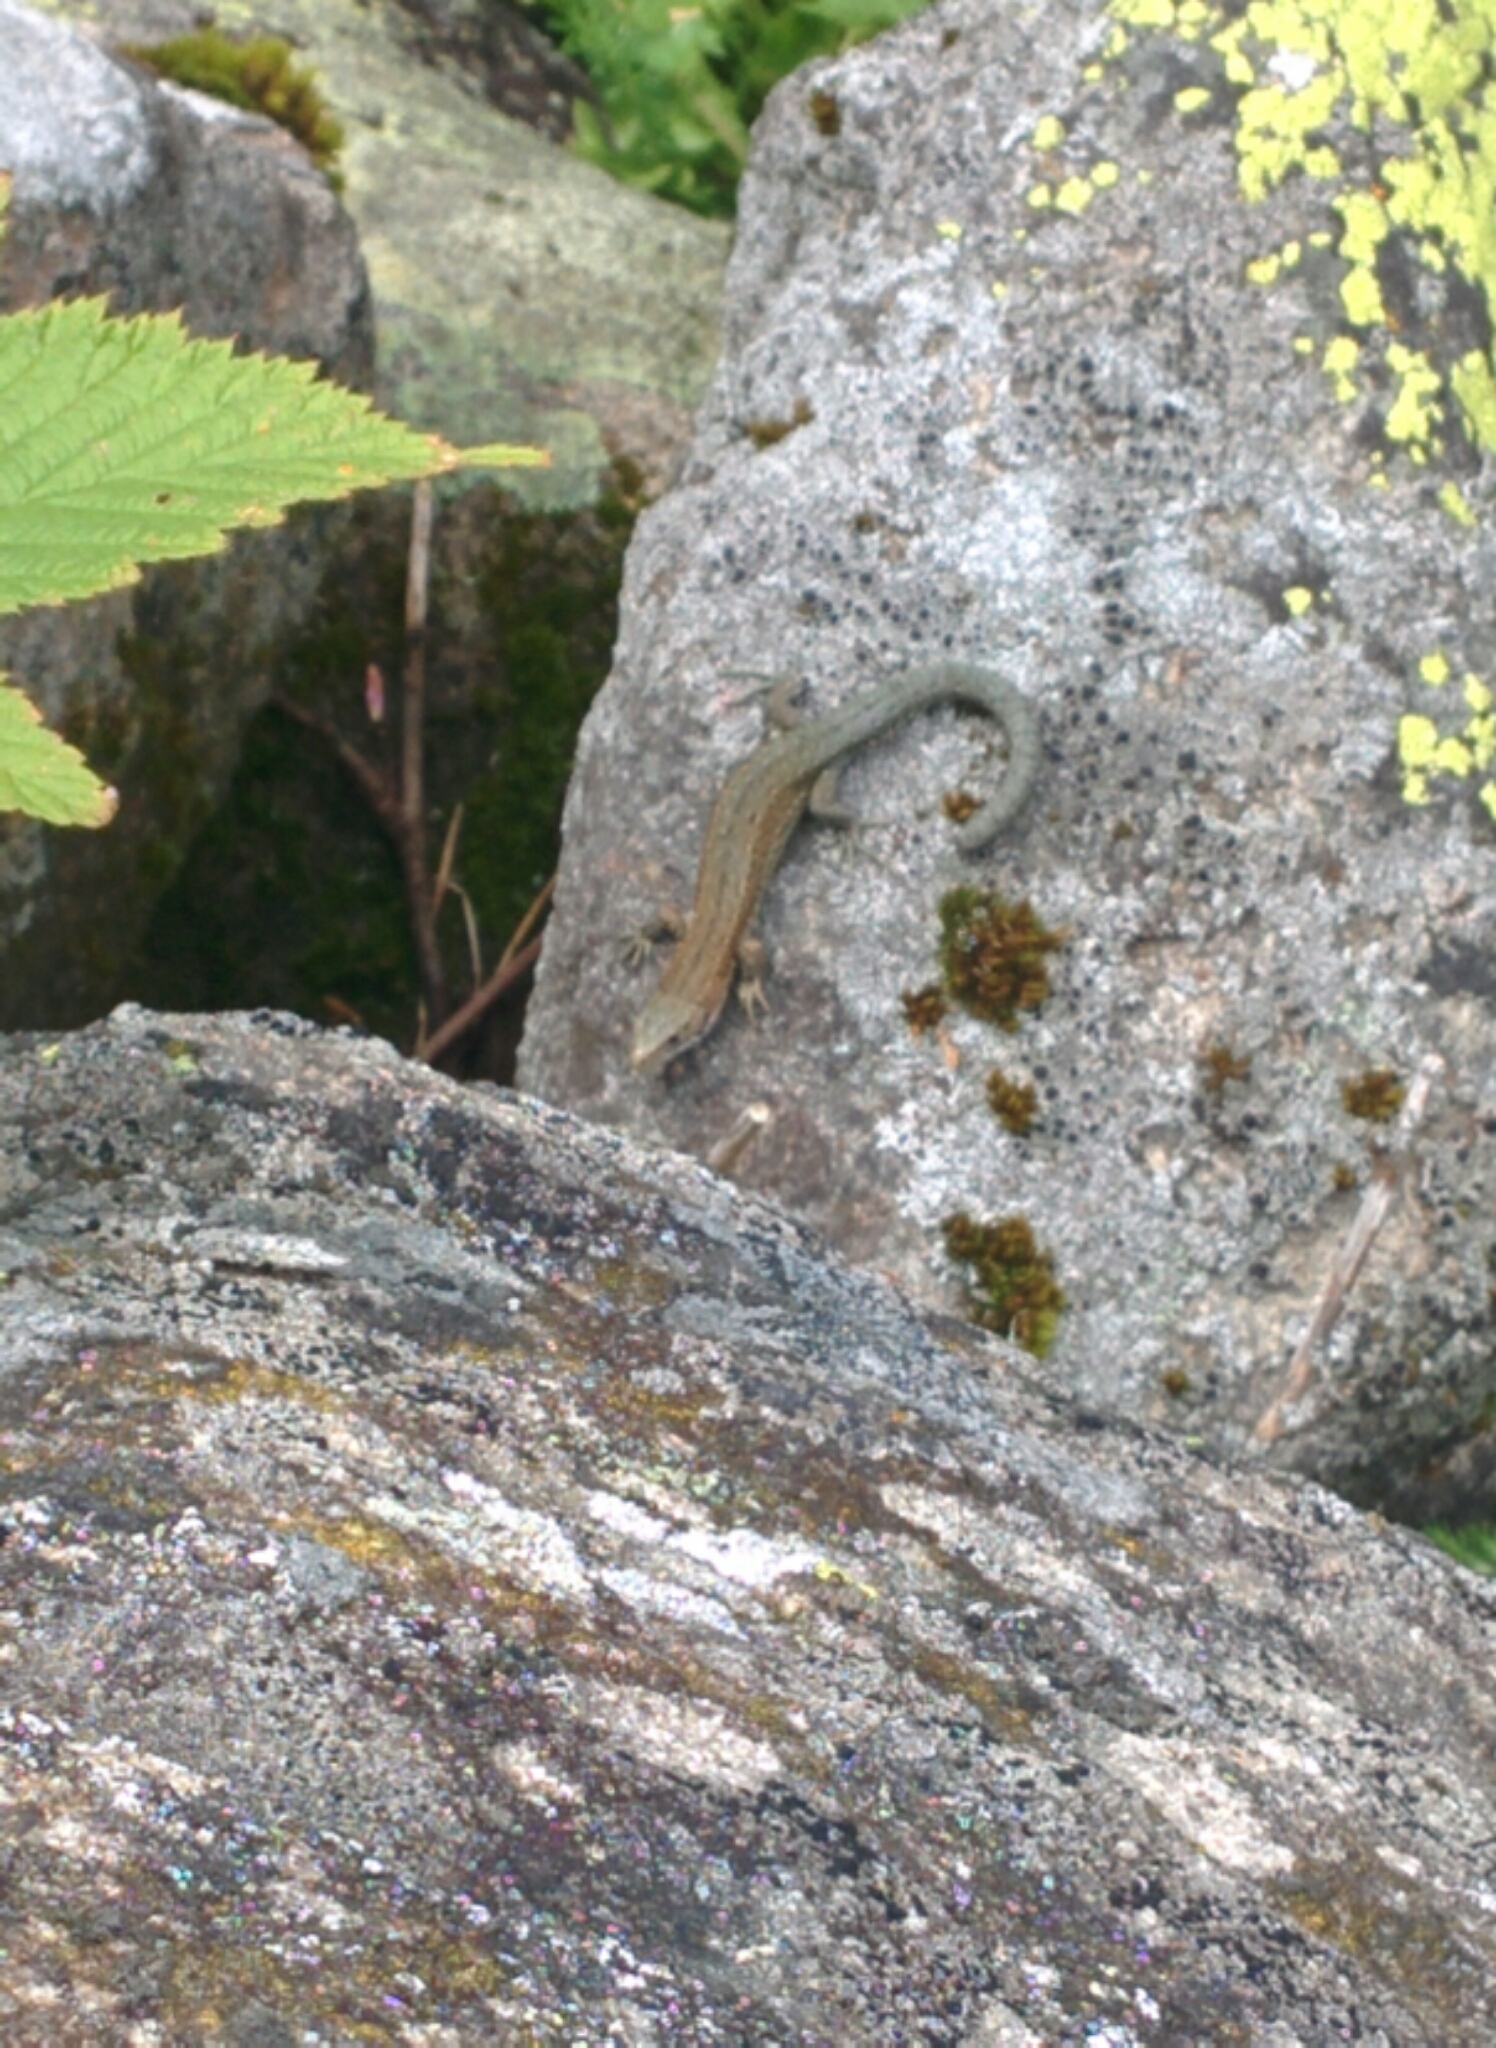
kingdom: Animalia
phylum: Chordata
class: Squamata
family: Lacertidae
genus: Zootoca
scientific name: Zootoca vivipara
